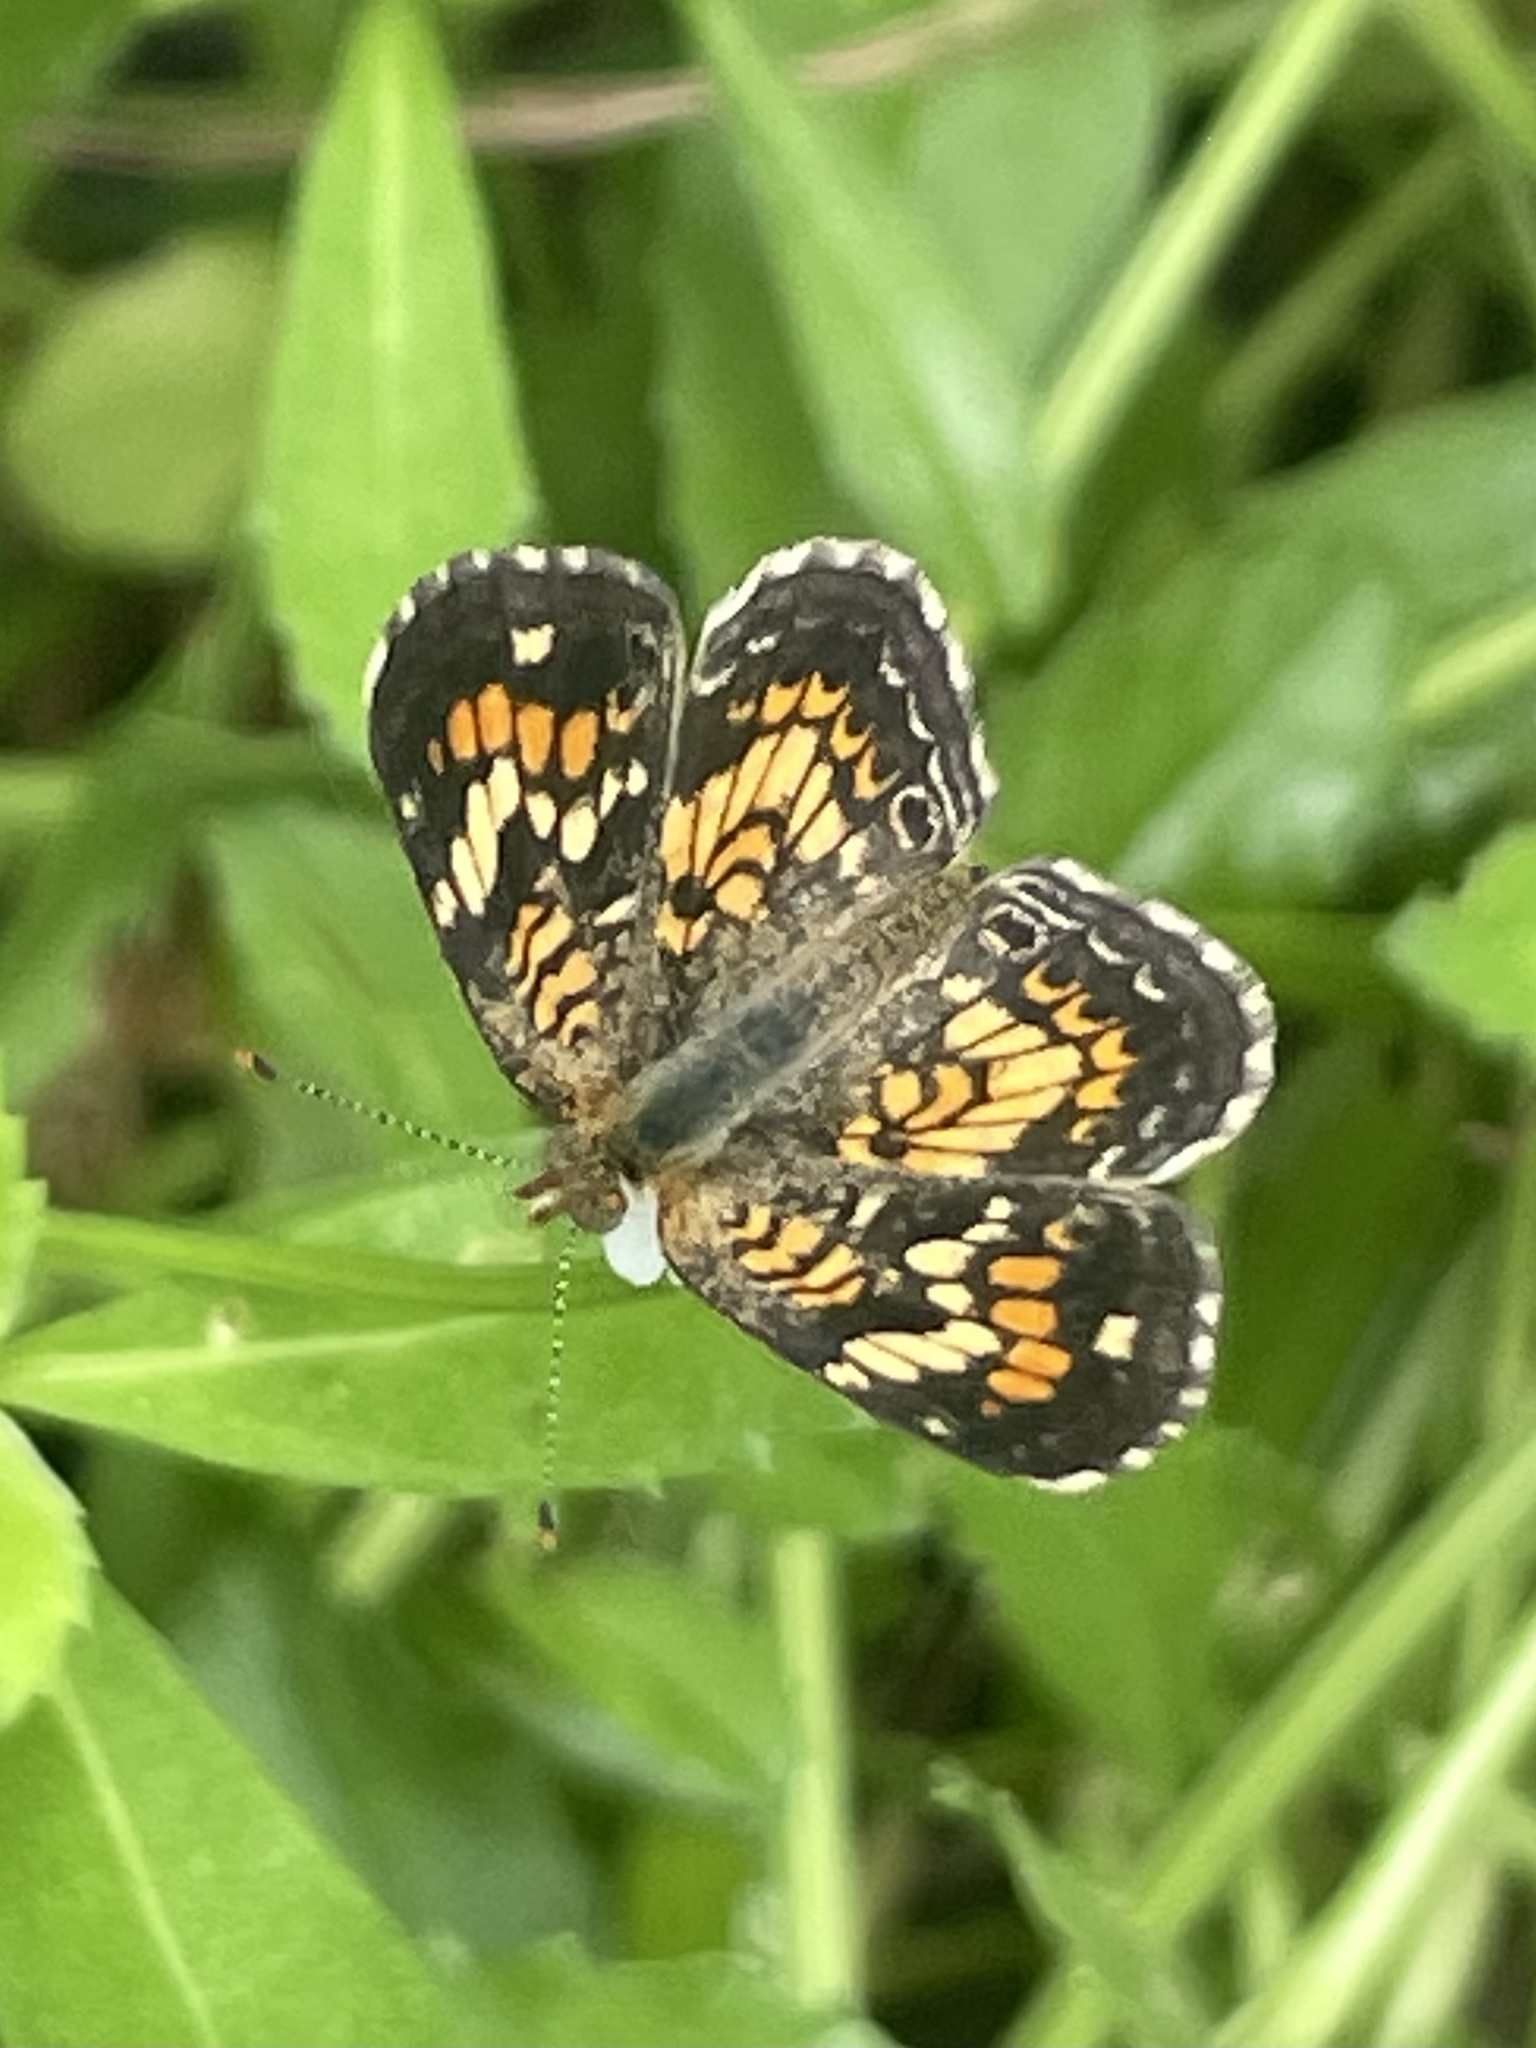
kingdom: Animalia
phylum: Arthropoda
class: Insecta
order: Lepidoptera
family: Nymphalidae
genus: Phyciodes
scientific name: Phyciodes phaon
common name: Phaon crescent
